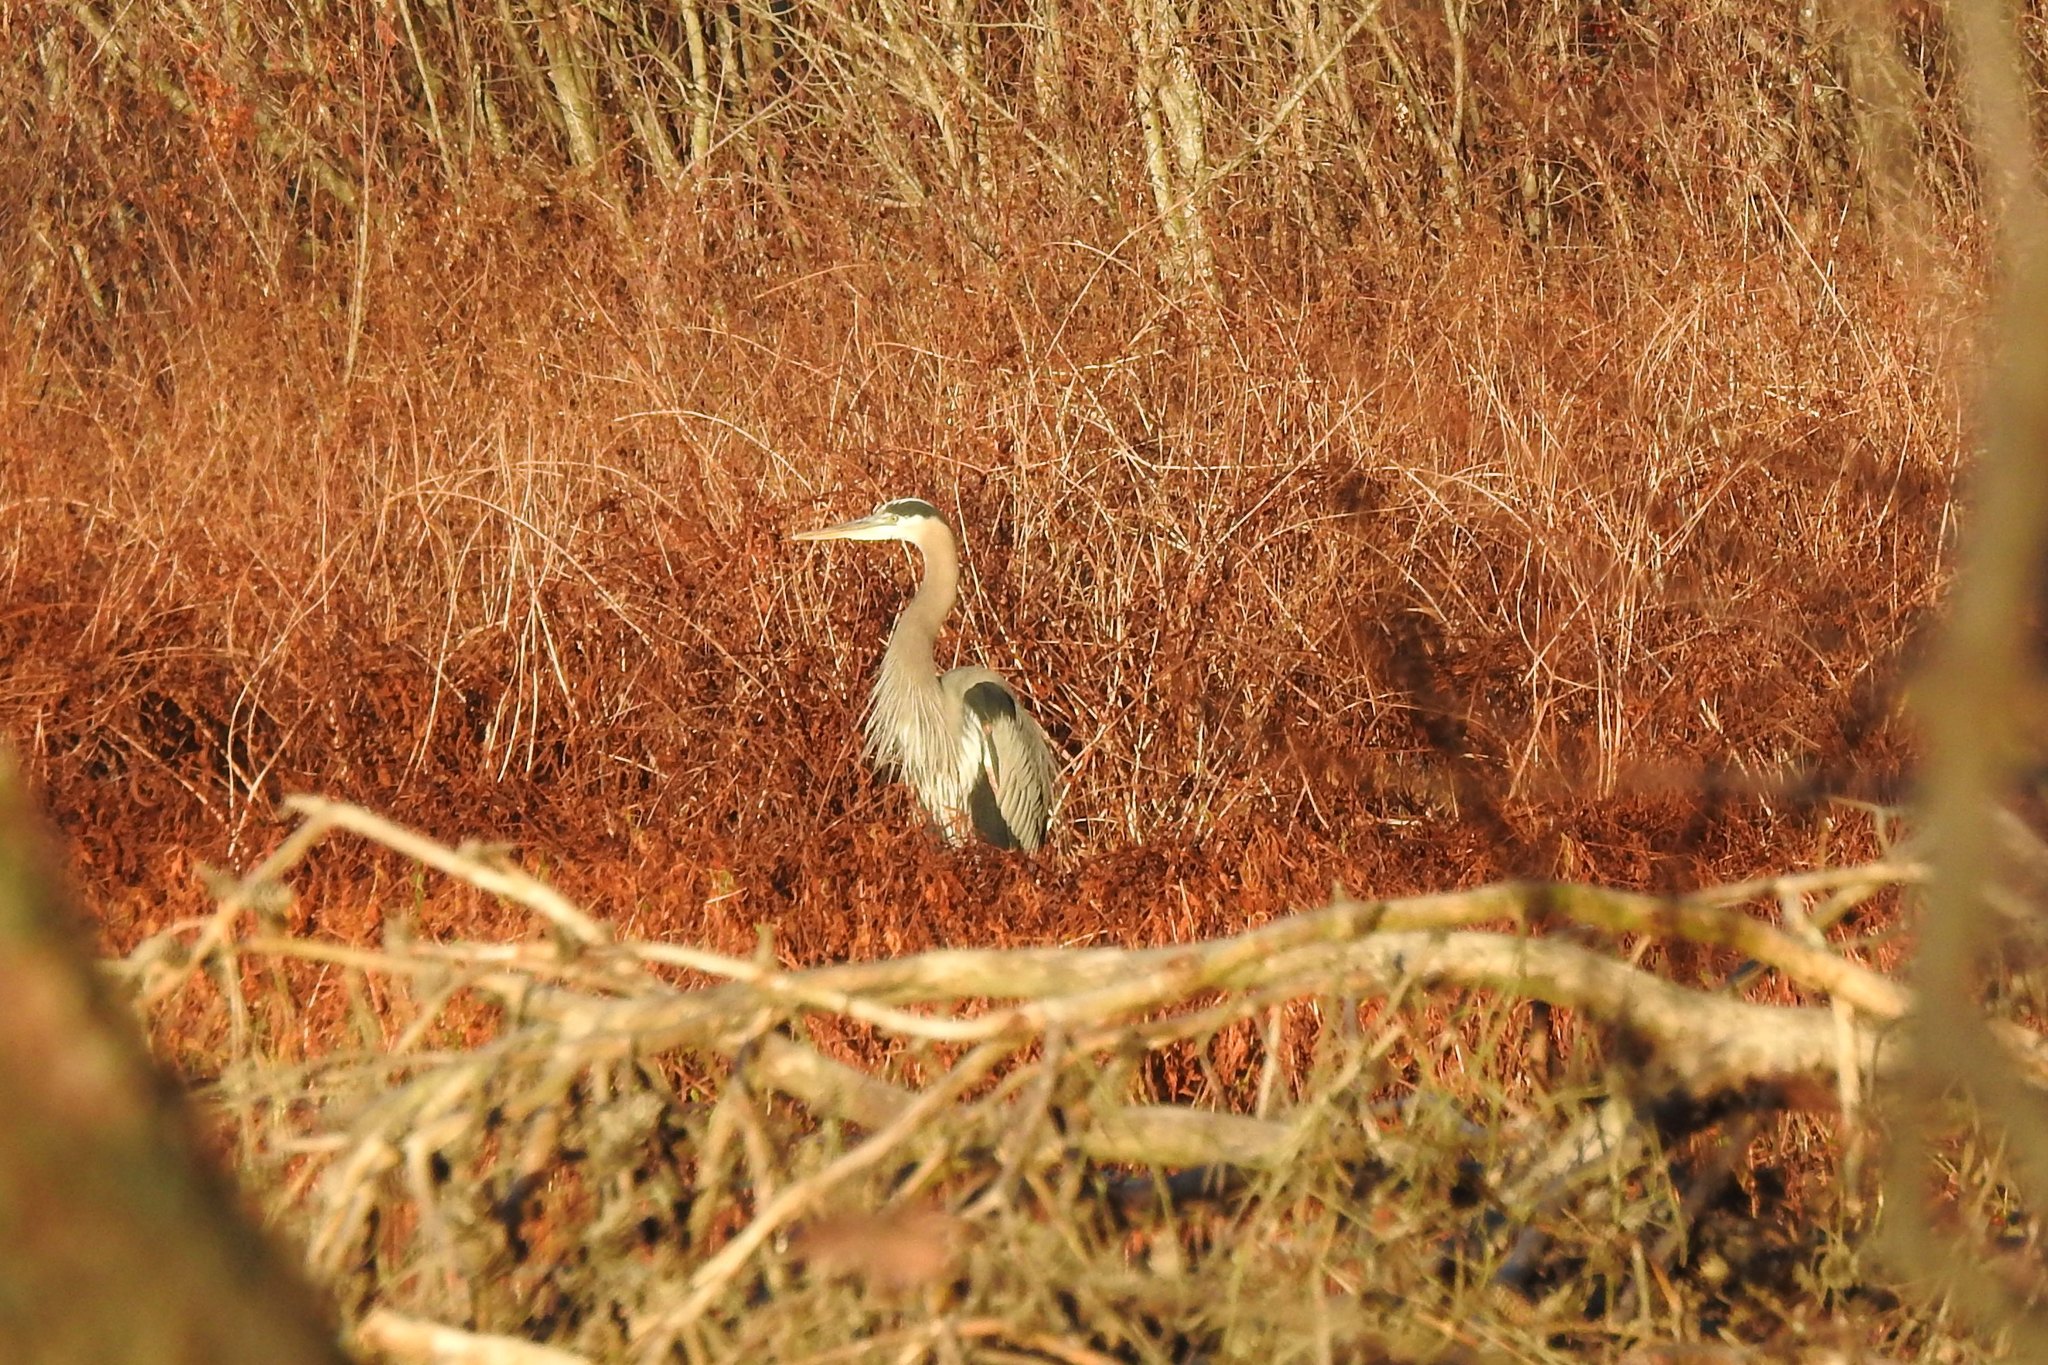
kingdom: Animalia
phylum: Chordata
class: Aves
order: Pelecaniformes
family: Ardeidae
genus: Ardea
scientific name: Ardea herodias
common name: Great blue heron
